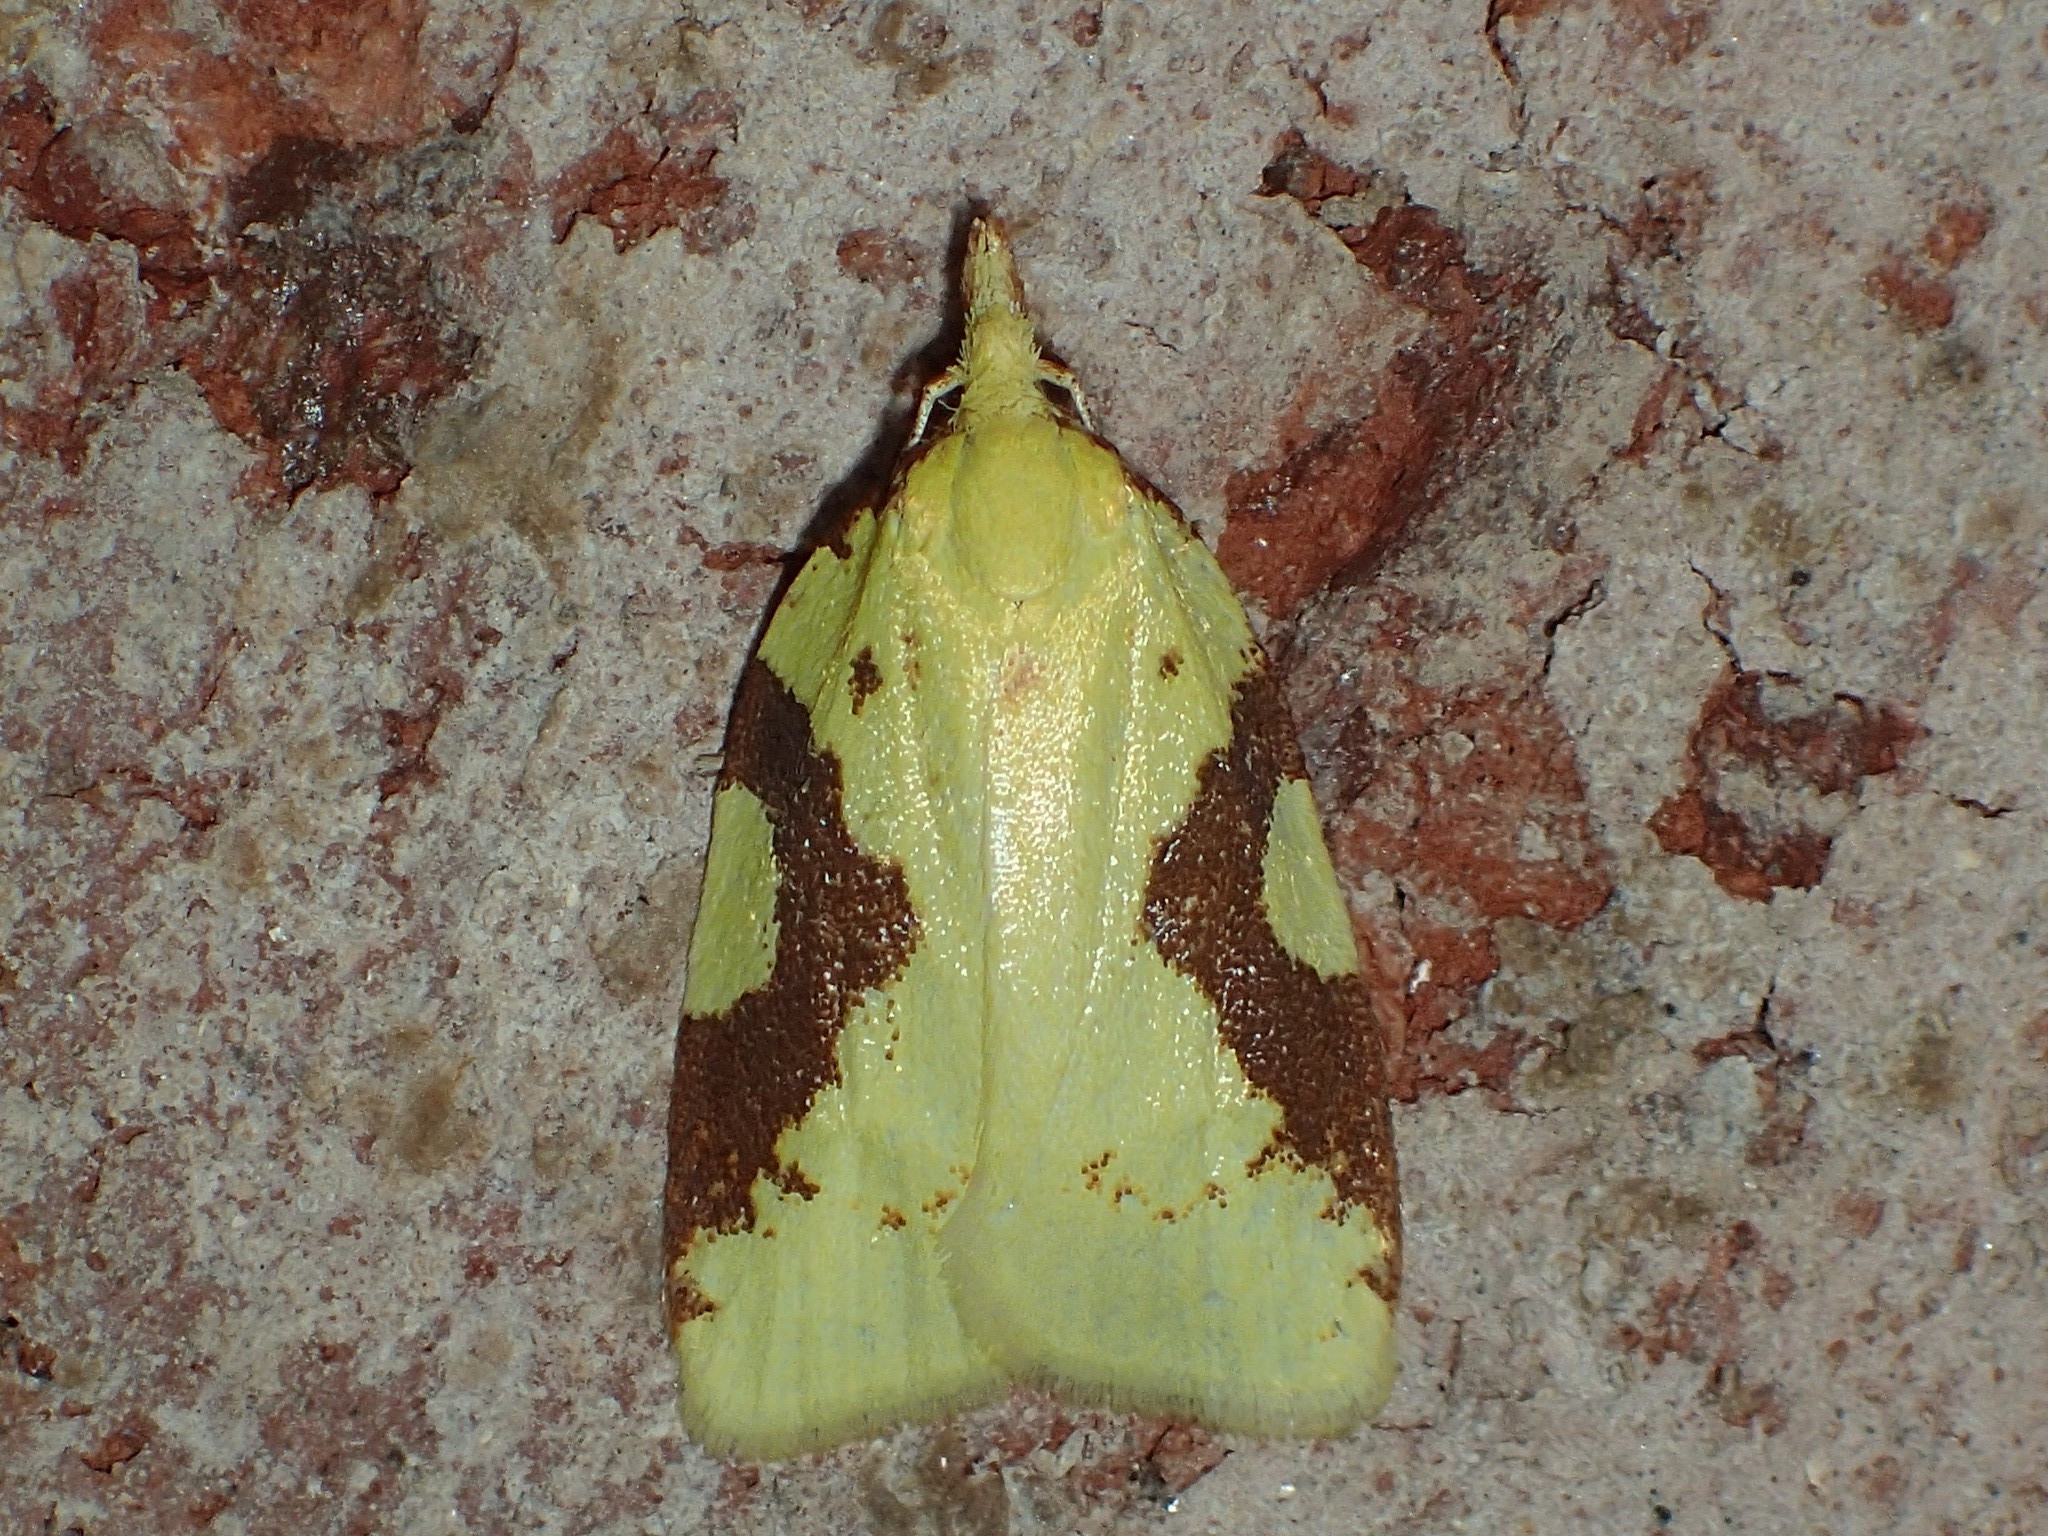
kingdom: Animalia
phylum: Arthropoda
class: Insecta
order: Lepidoptera
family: Tortricidae
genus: Cenopis
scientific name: Cenopis niveana
